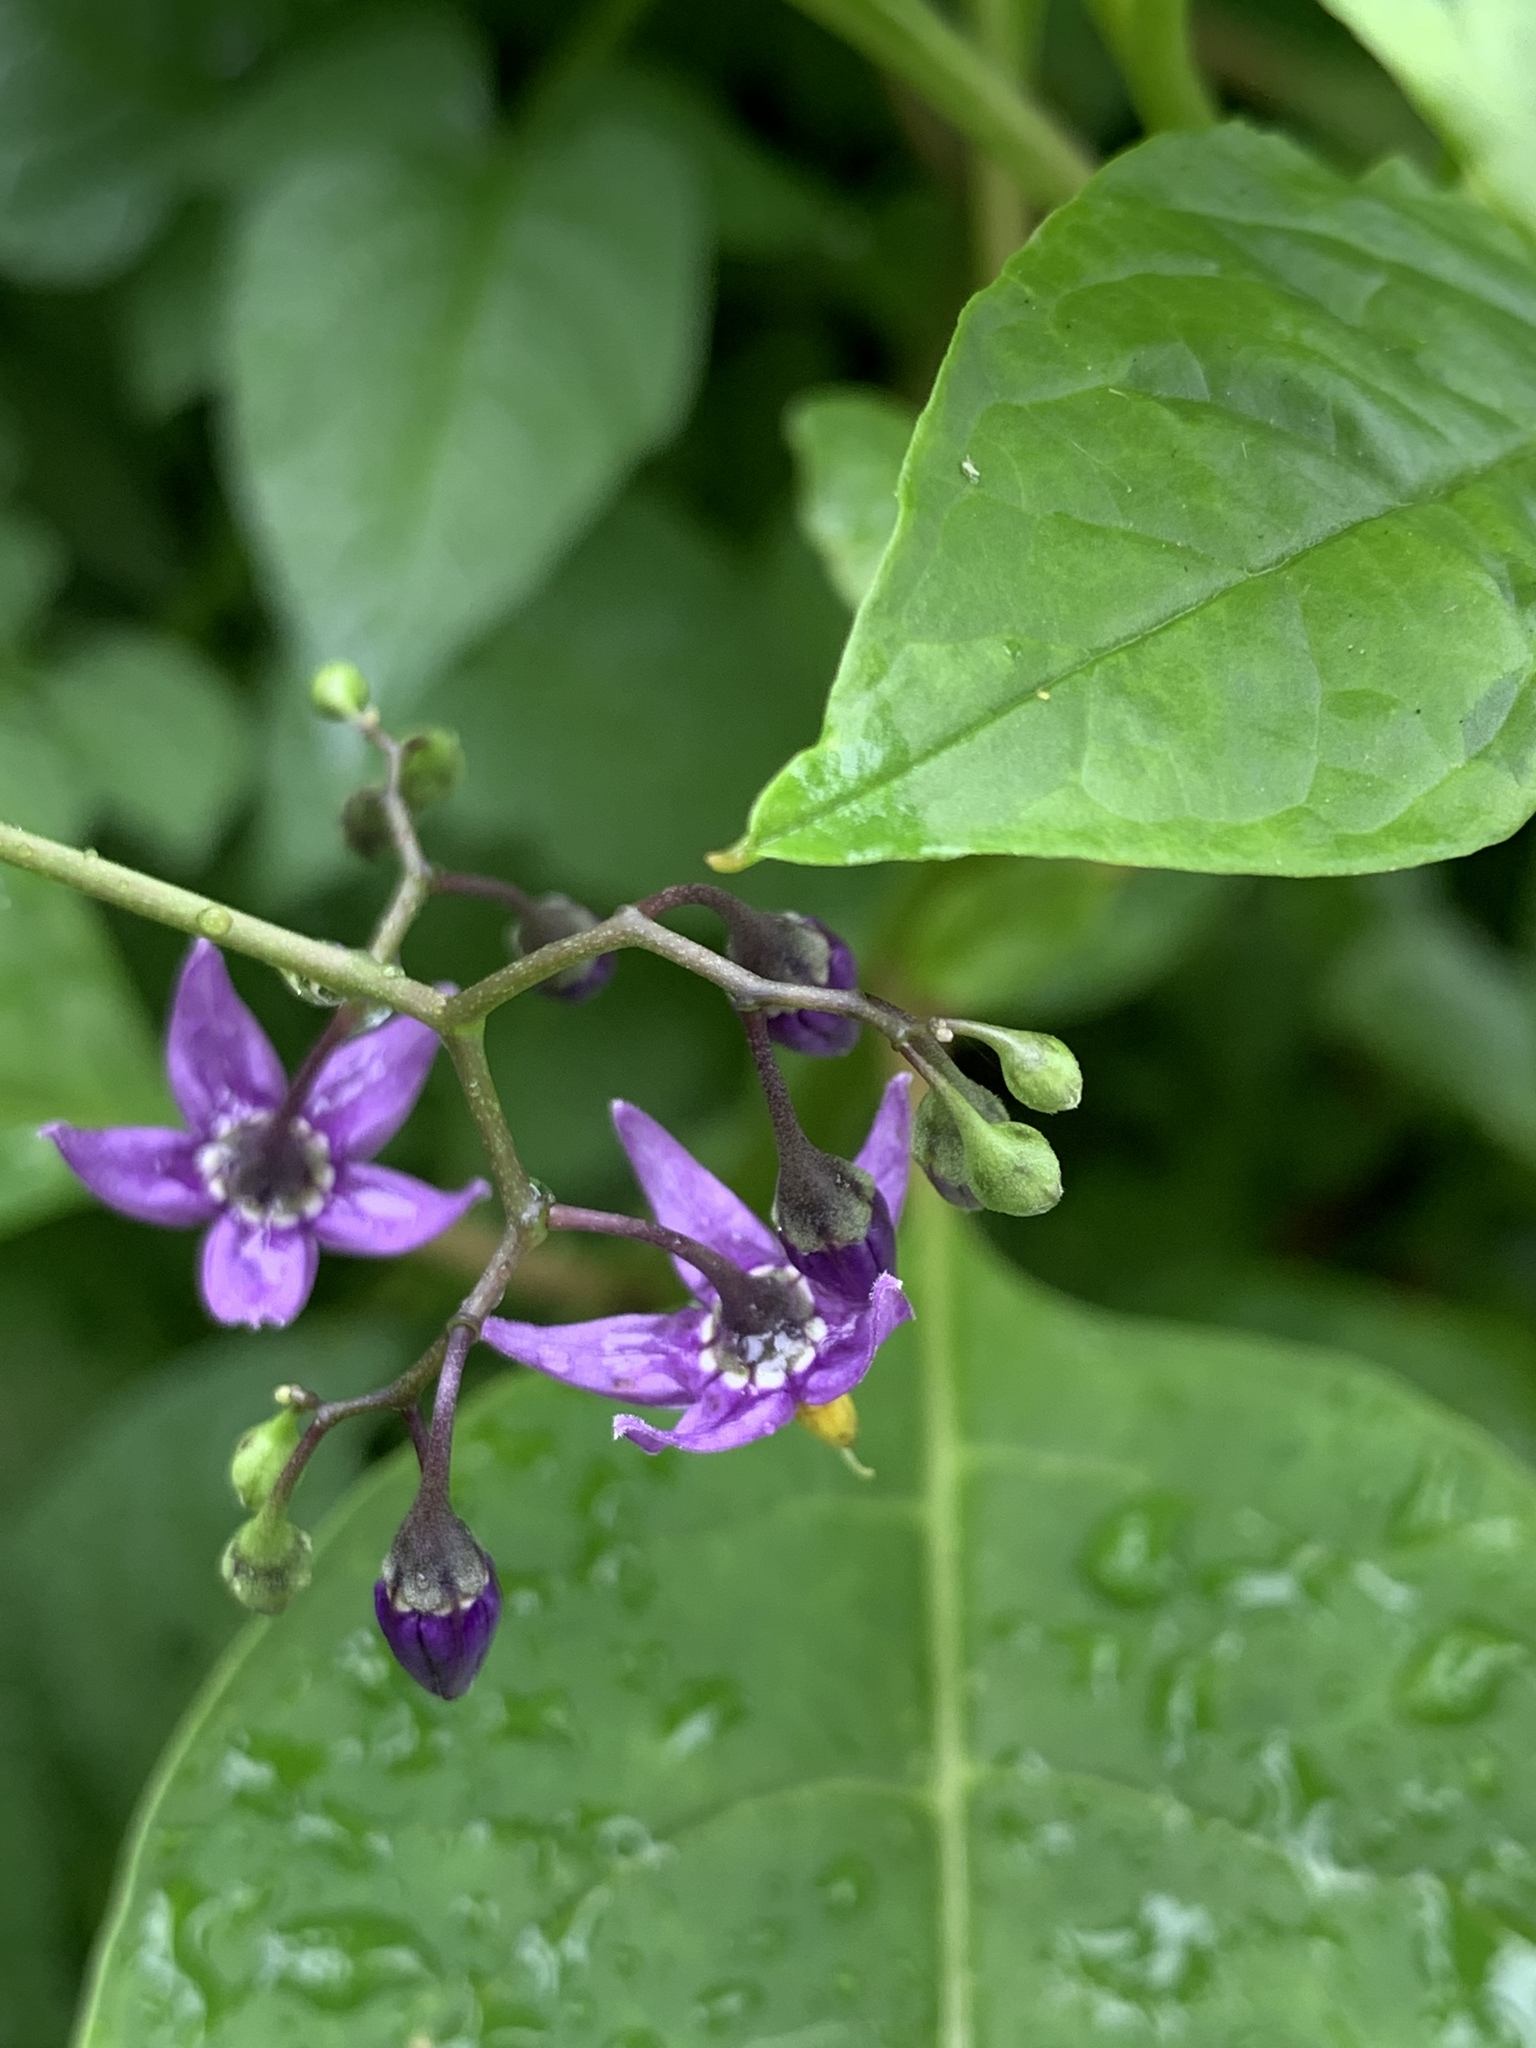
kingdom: Plantae
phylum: Tracheophyta
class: Magnoliopsida
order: Solanales
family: Solanaceae
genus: Solanum
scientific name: Solanum dulcamara
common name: Climbing nightshade
